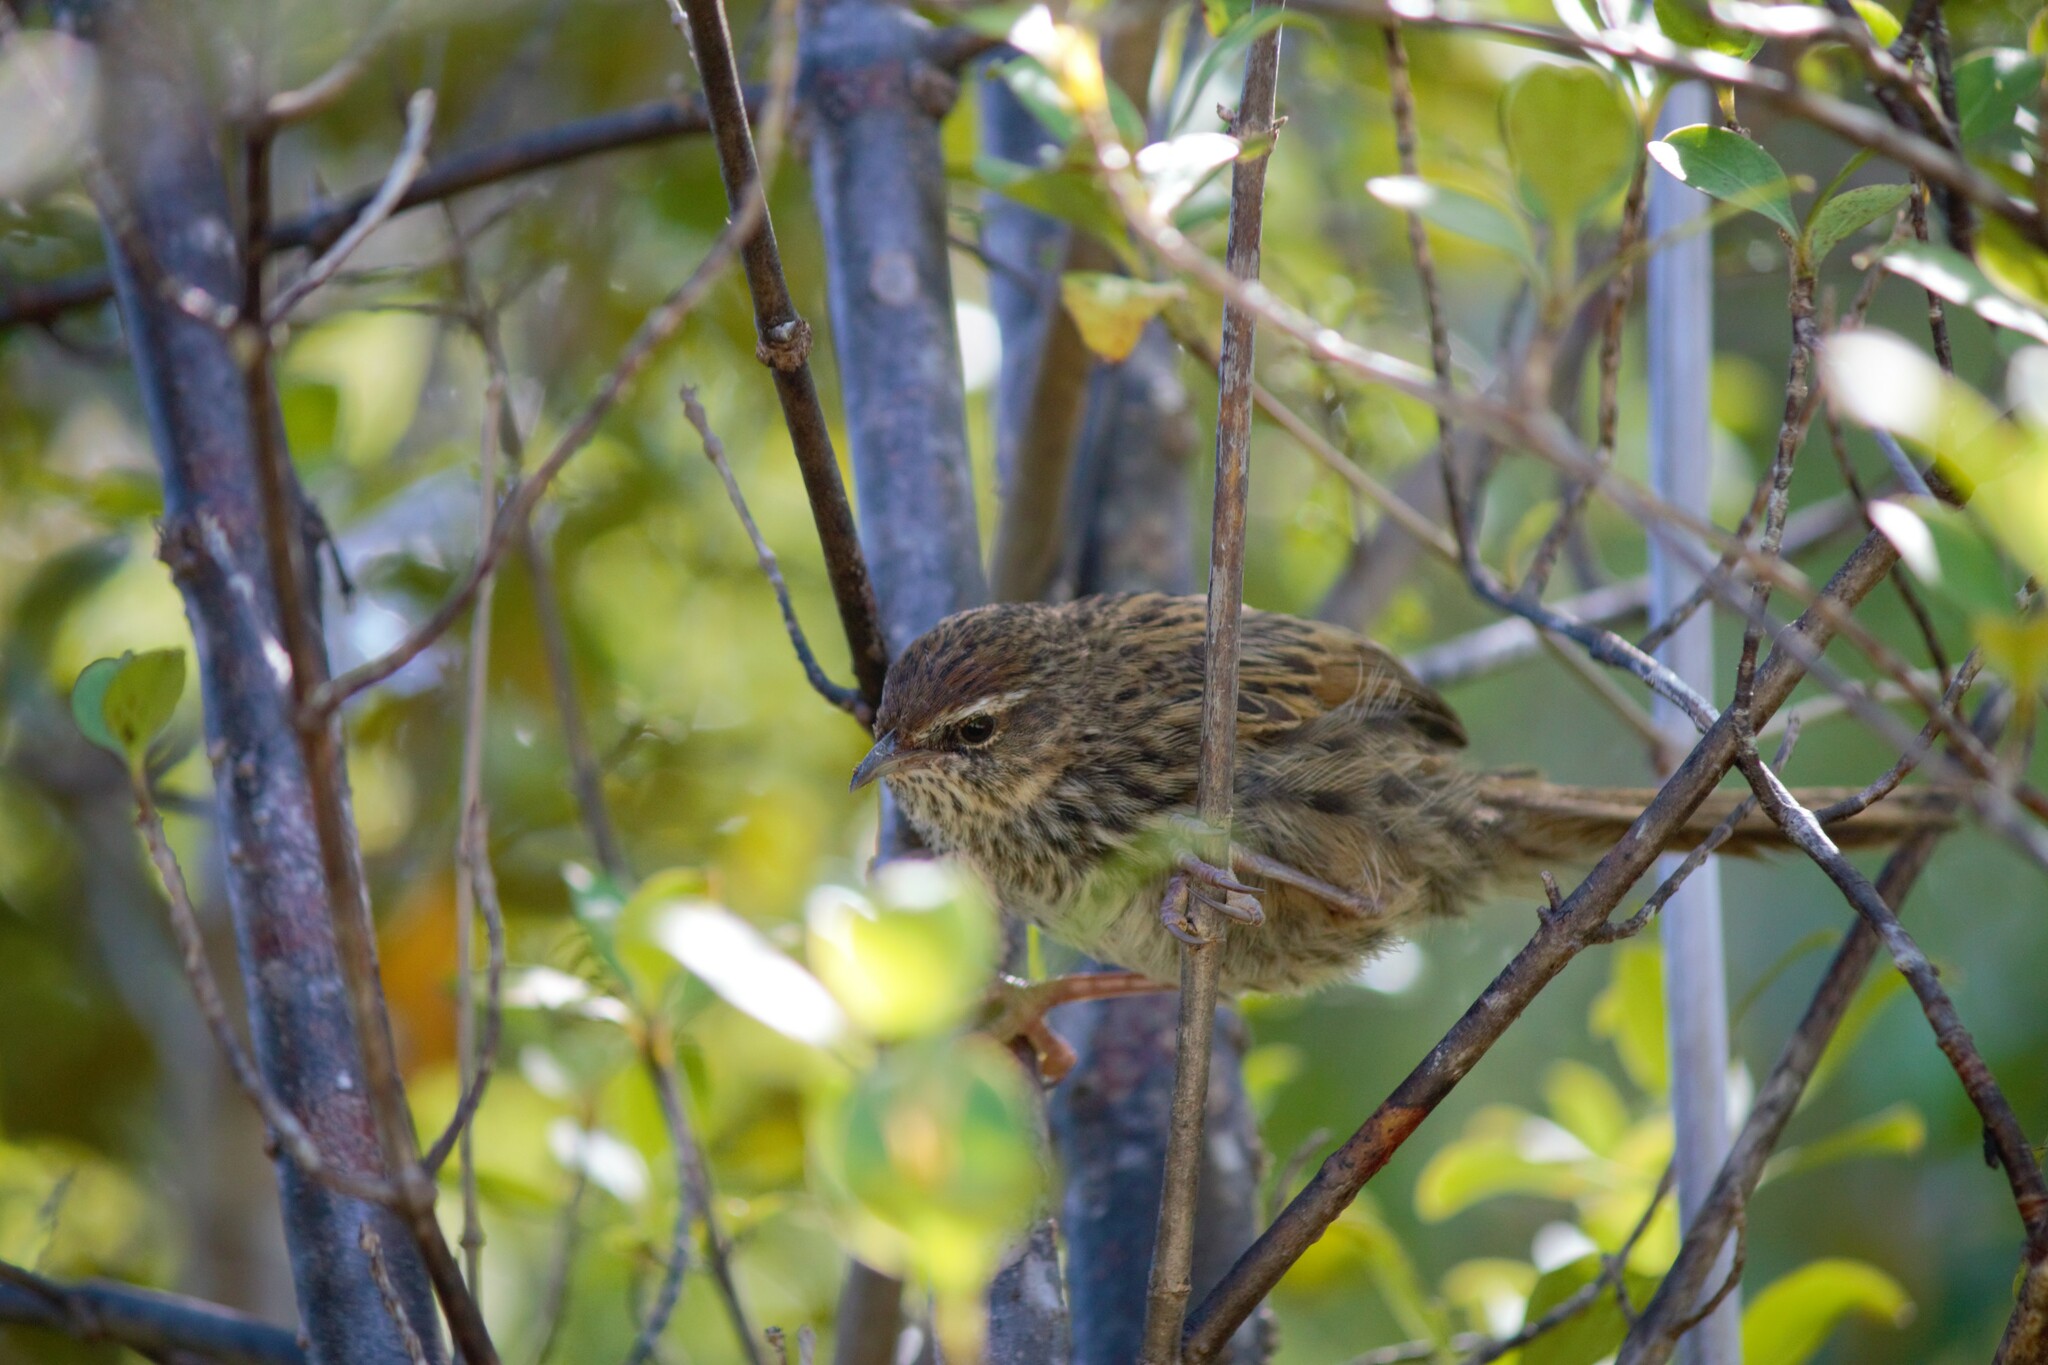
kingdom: Animalia
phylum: Chordata
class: Aves
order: Passeriformes
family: Locustellidae
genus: Poodytes
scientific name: Poodytes punctatus
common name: New zealand fernbird
